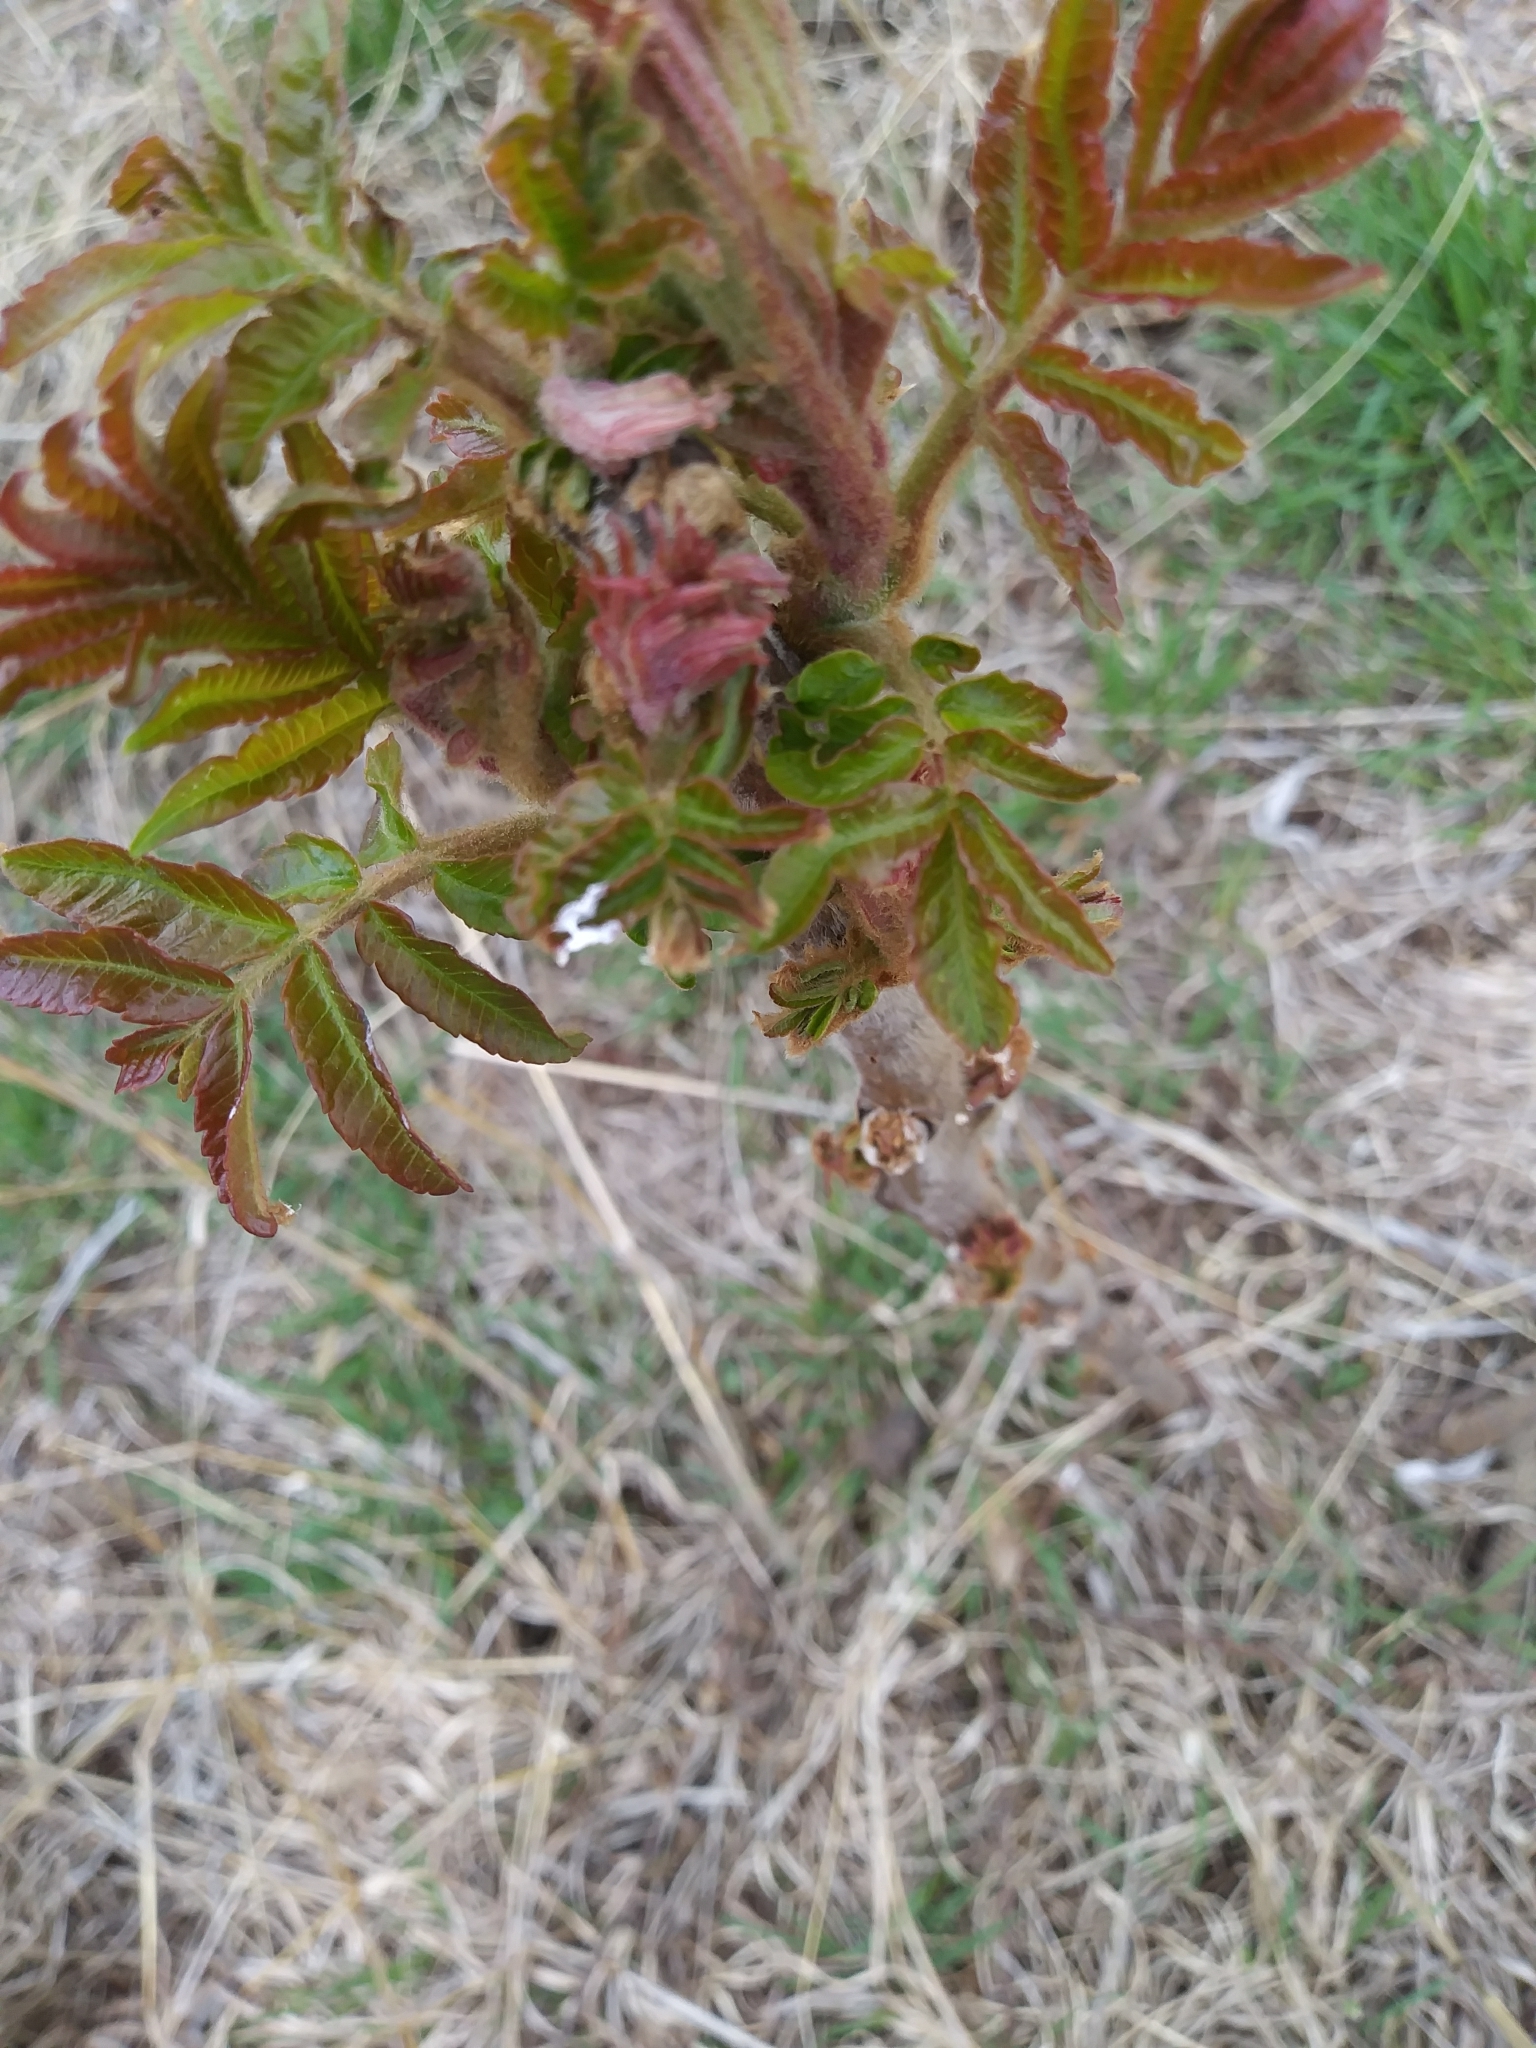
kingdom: Plantae
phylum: Tracheophyta
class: Magnoliopsida
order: Sapindales
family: Anacardiaceae
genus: Rhus
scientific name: Rhus typhina
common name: Staghorn sumac
